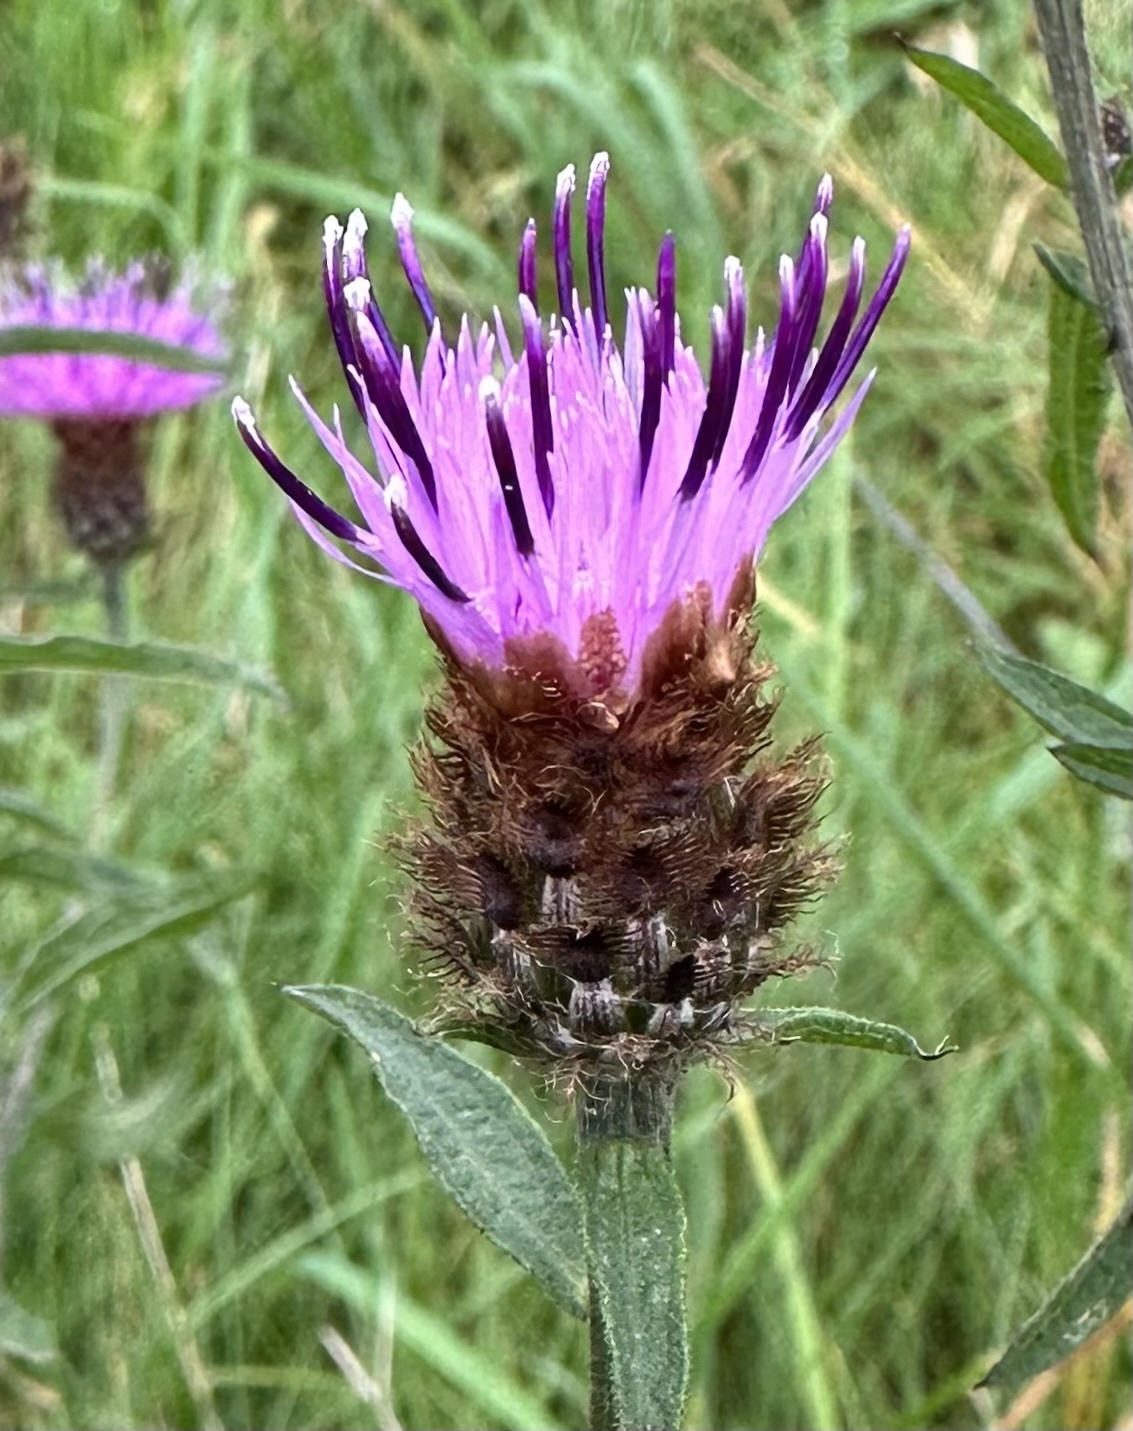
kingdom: Plantae
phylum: Tracheophyta
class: Magnoliopsida
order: Asterales
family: Asteraceae
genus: Centaurea
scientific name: Centaurea nigra
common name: Lesser knapweed
